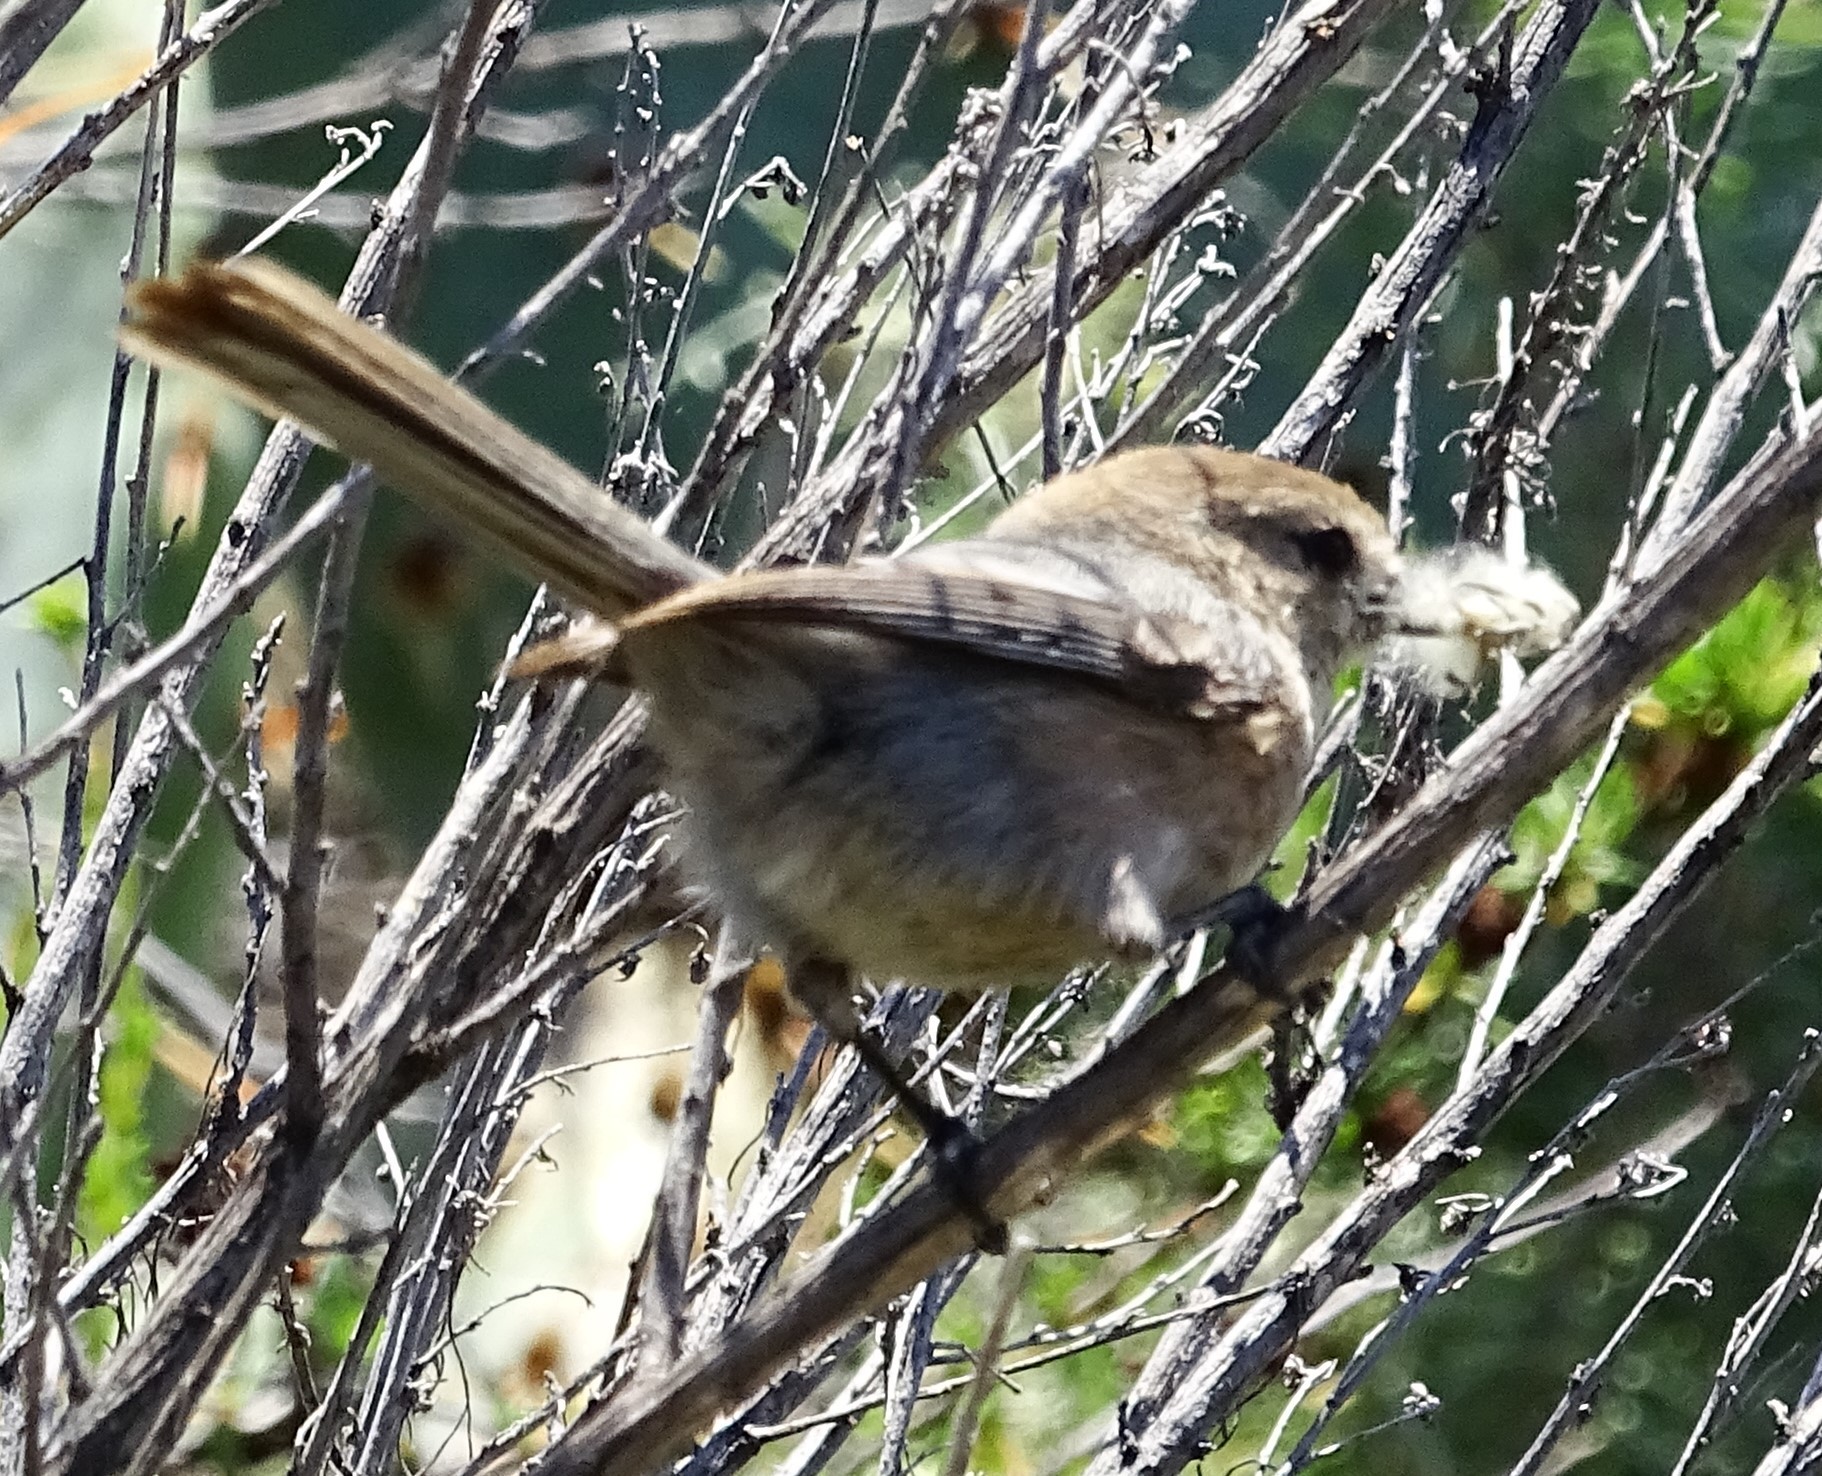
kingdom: Animalia
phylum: Chordata
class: Aves
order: Passeriformes
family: Aegithalidae
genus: Psaltriparus
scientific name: Psaltriparus minimus
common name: American bushtit
